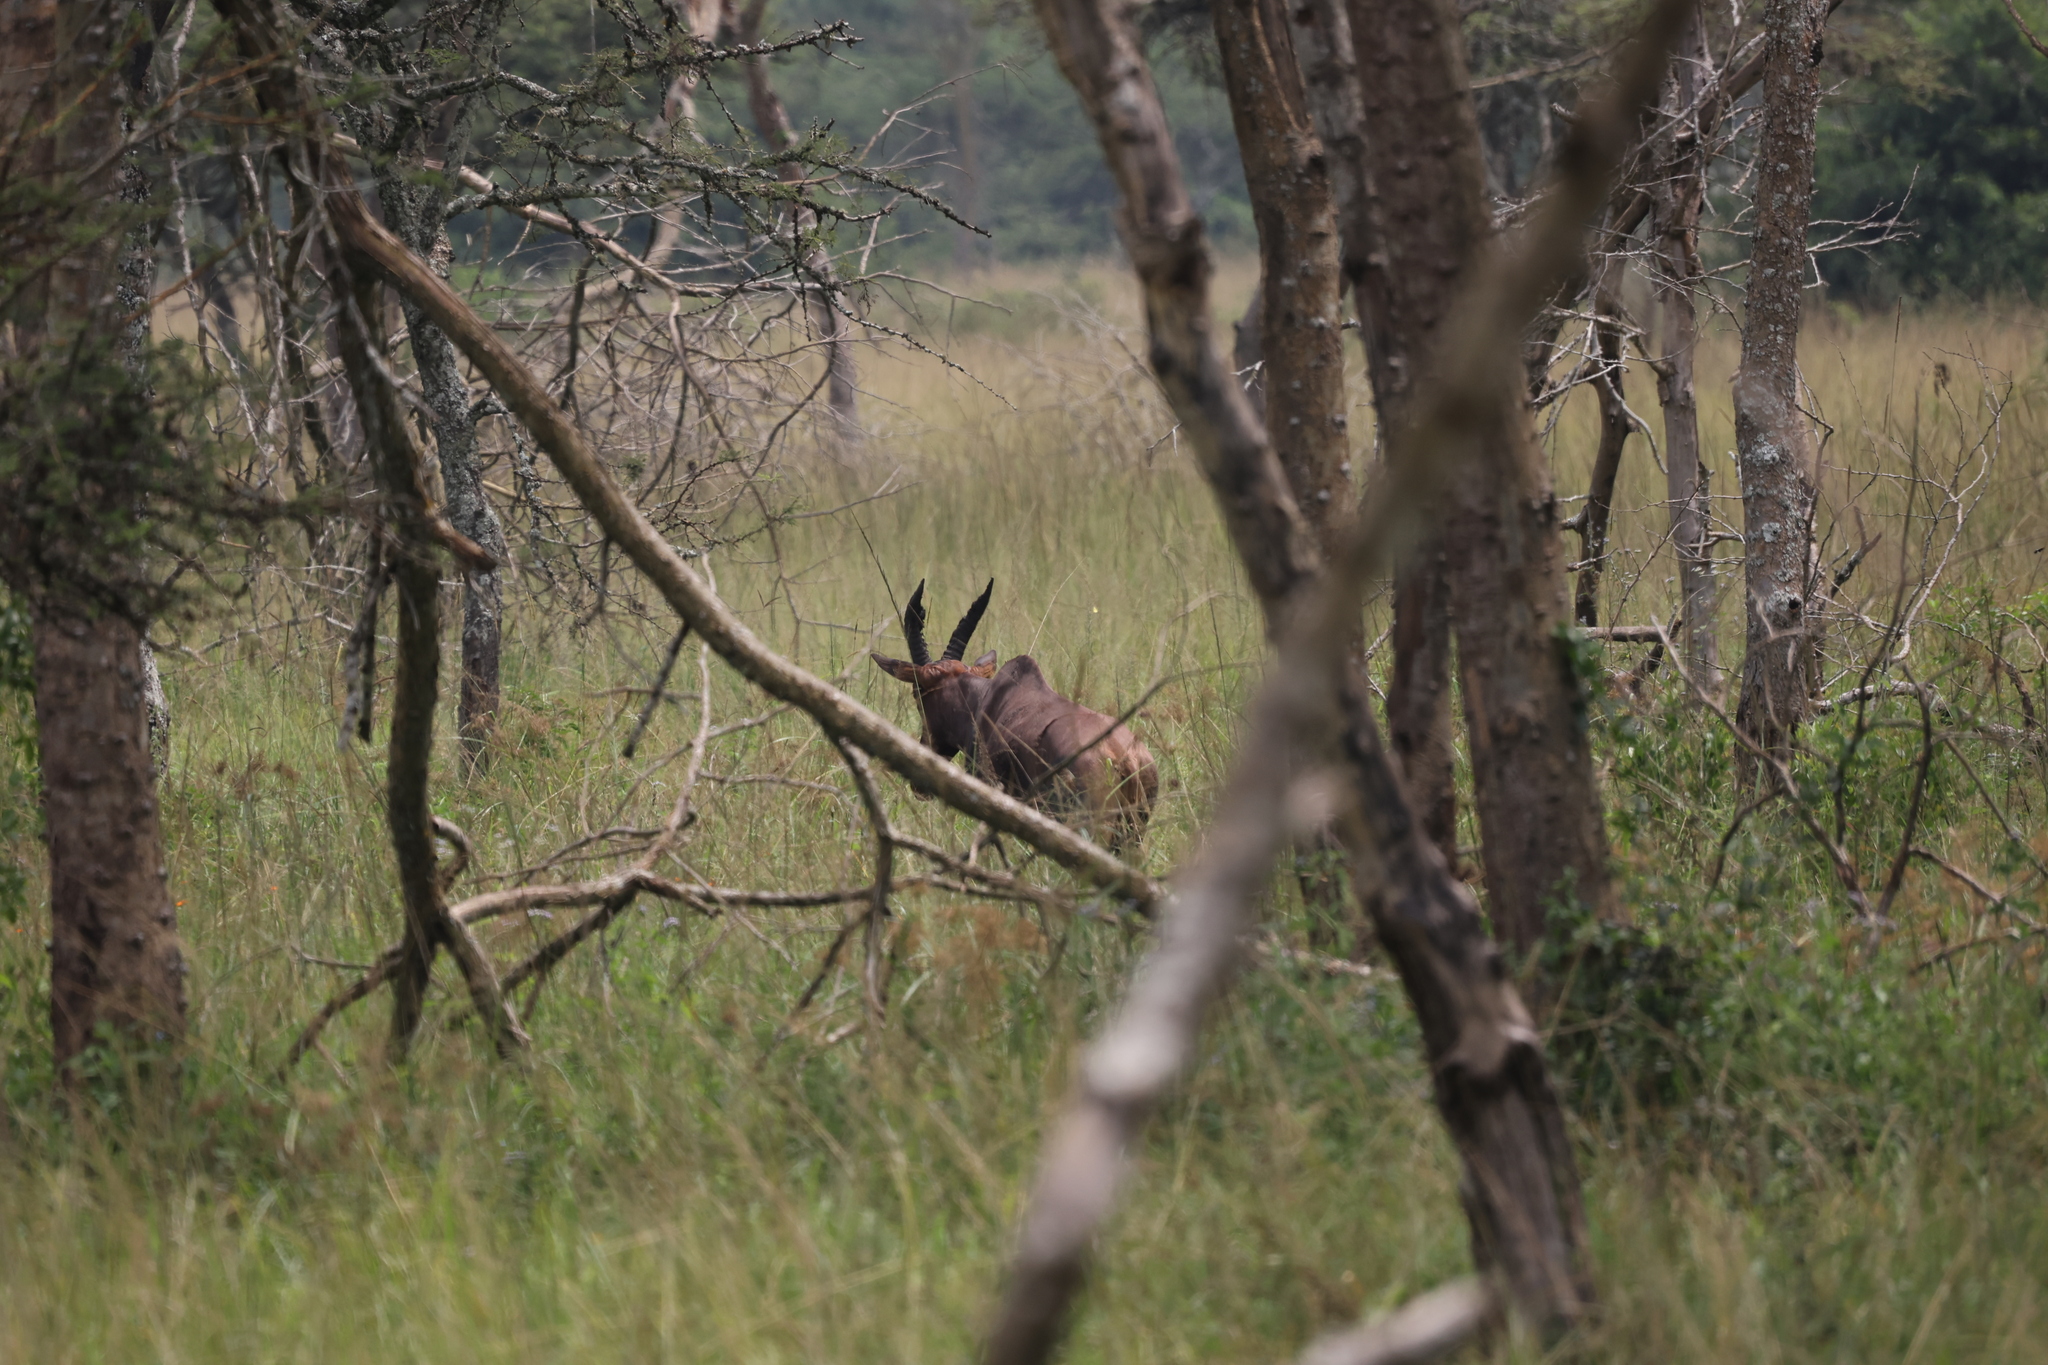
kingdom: Animalia
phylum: Chordata
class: Mammalia
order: Artiodactyla
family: Bovidae
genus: Damaliscus
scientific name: Damaliscus korrigum
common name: Topi
